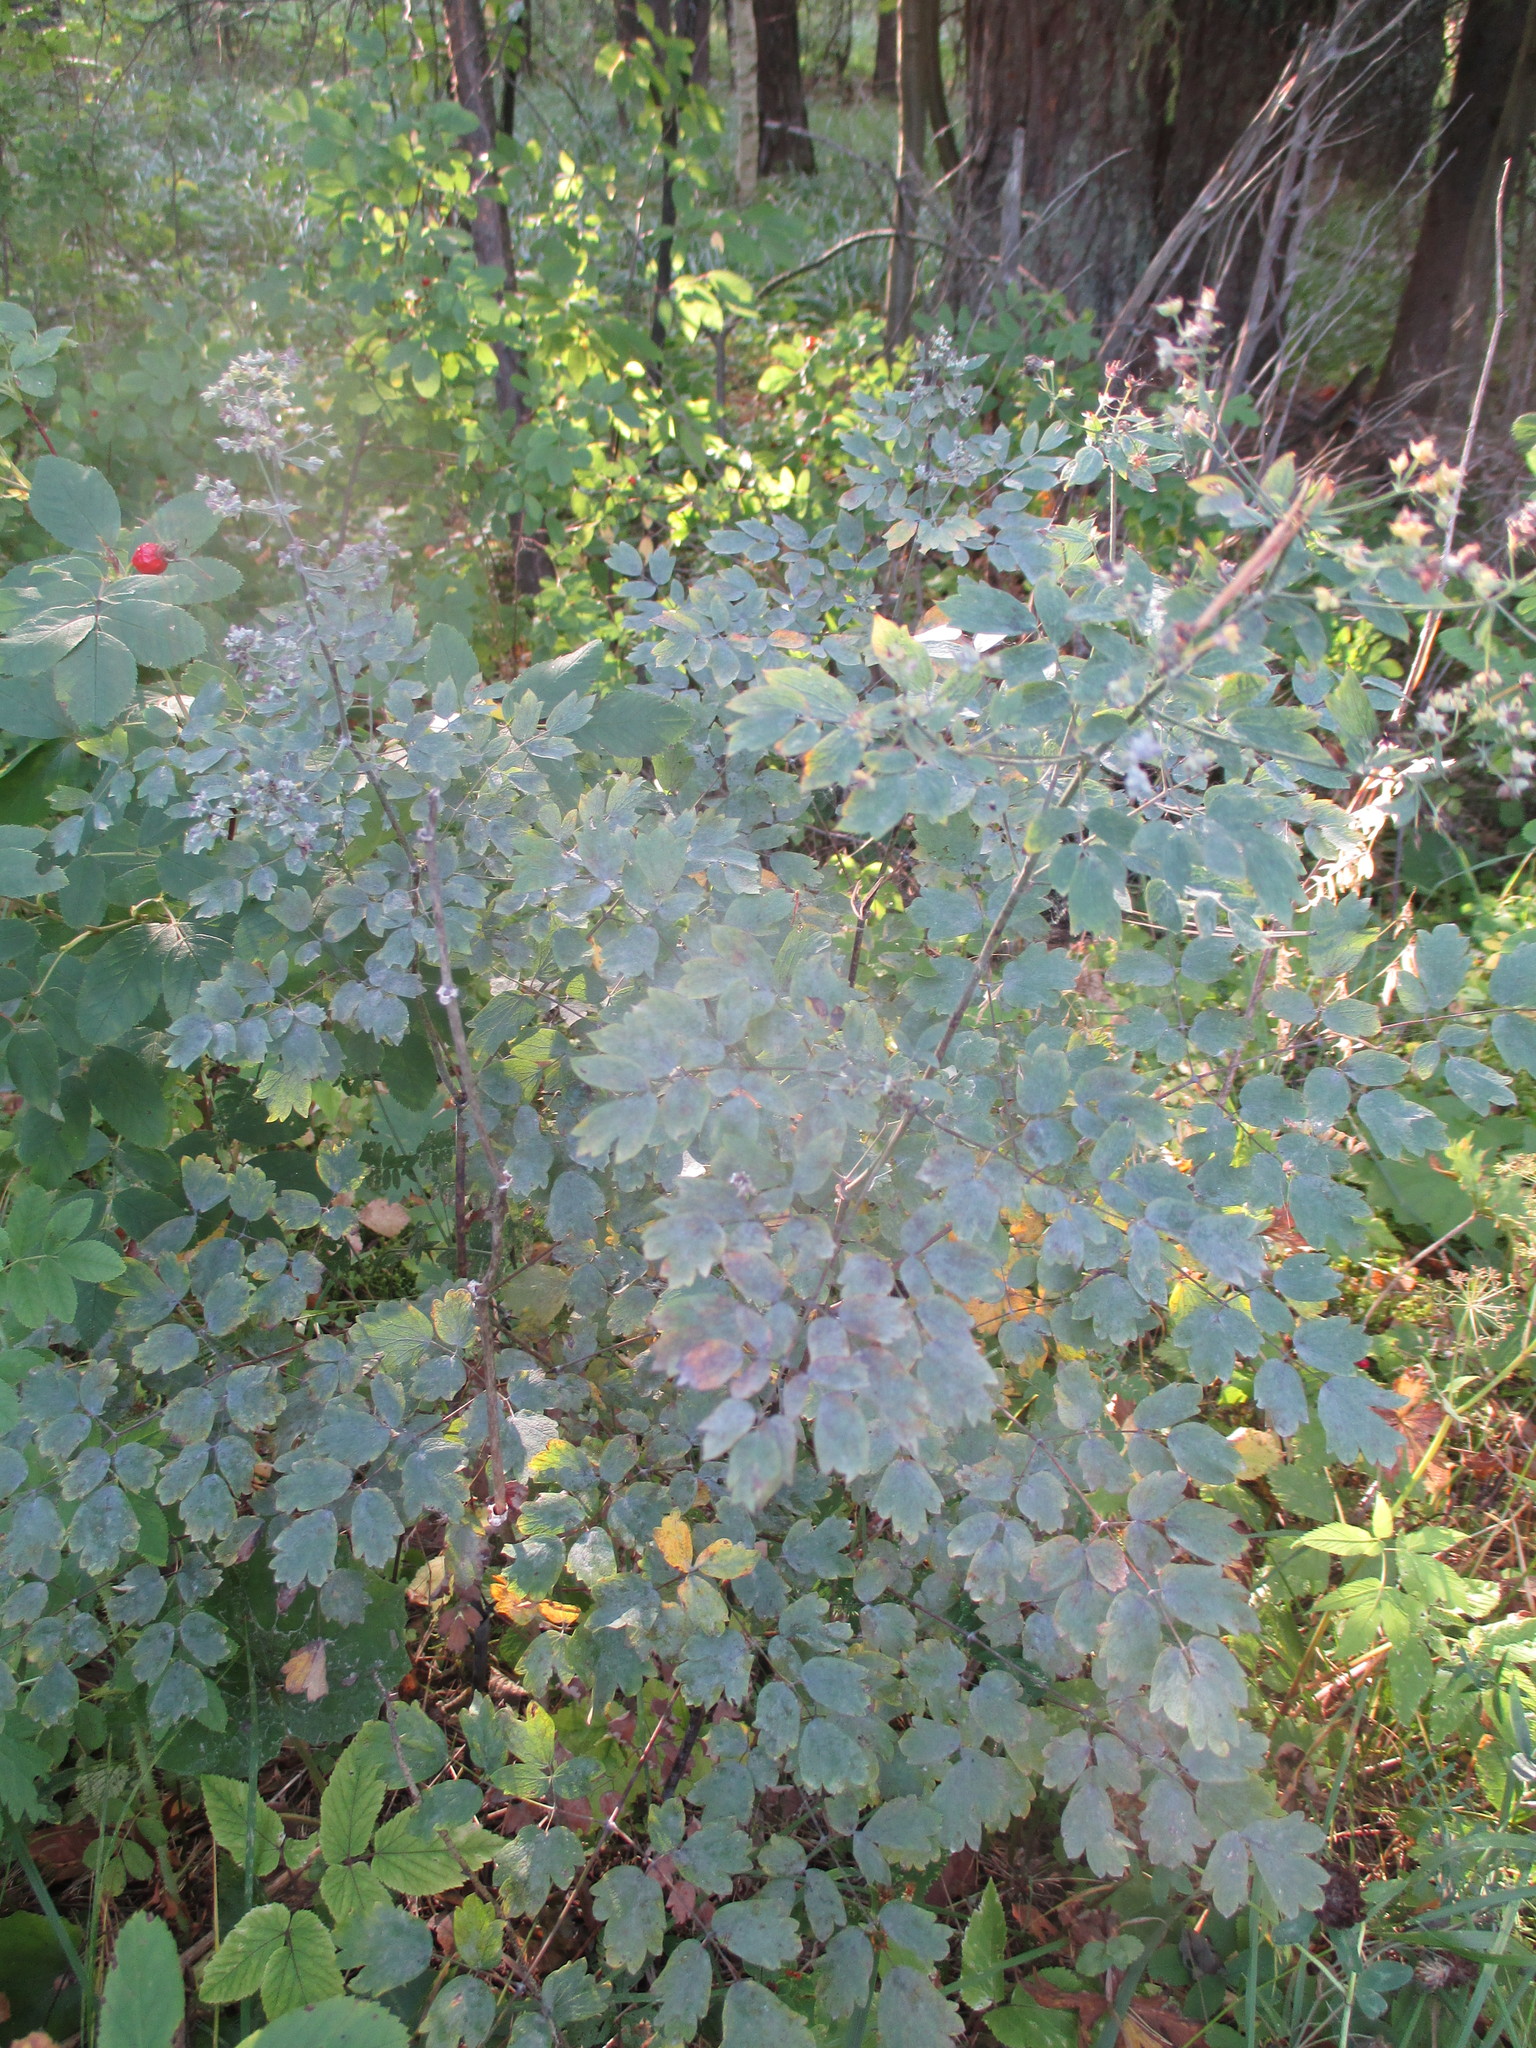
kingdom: Plantae
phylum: Tracheophyta
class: Magnoliopsida
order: Ranunculales
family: Ranunculaceae
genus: Thalictrum
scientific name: Thalictrum minus
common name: Lesser meadow-rue
